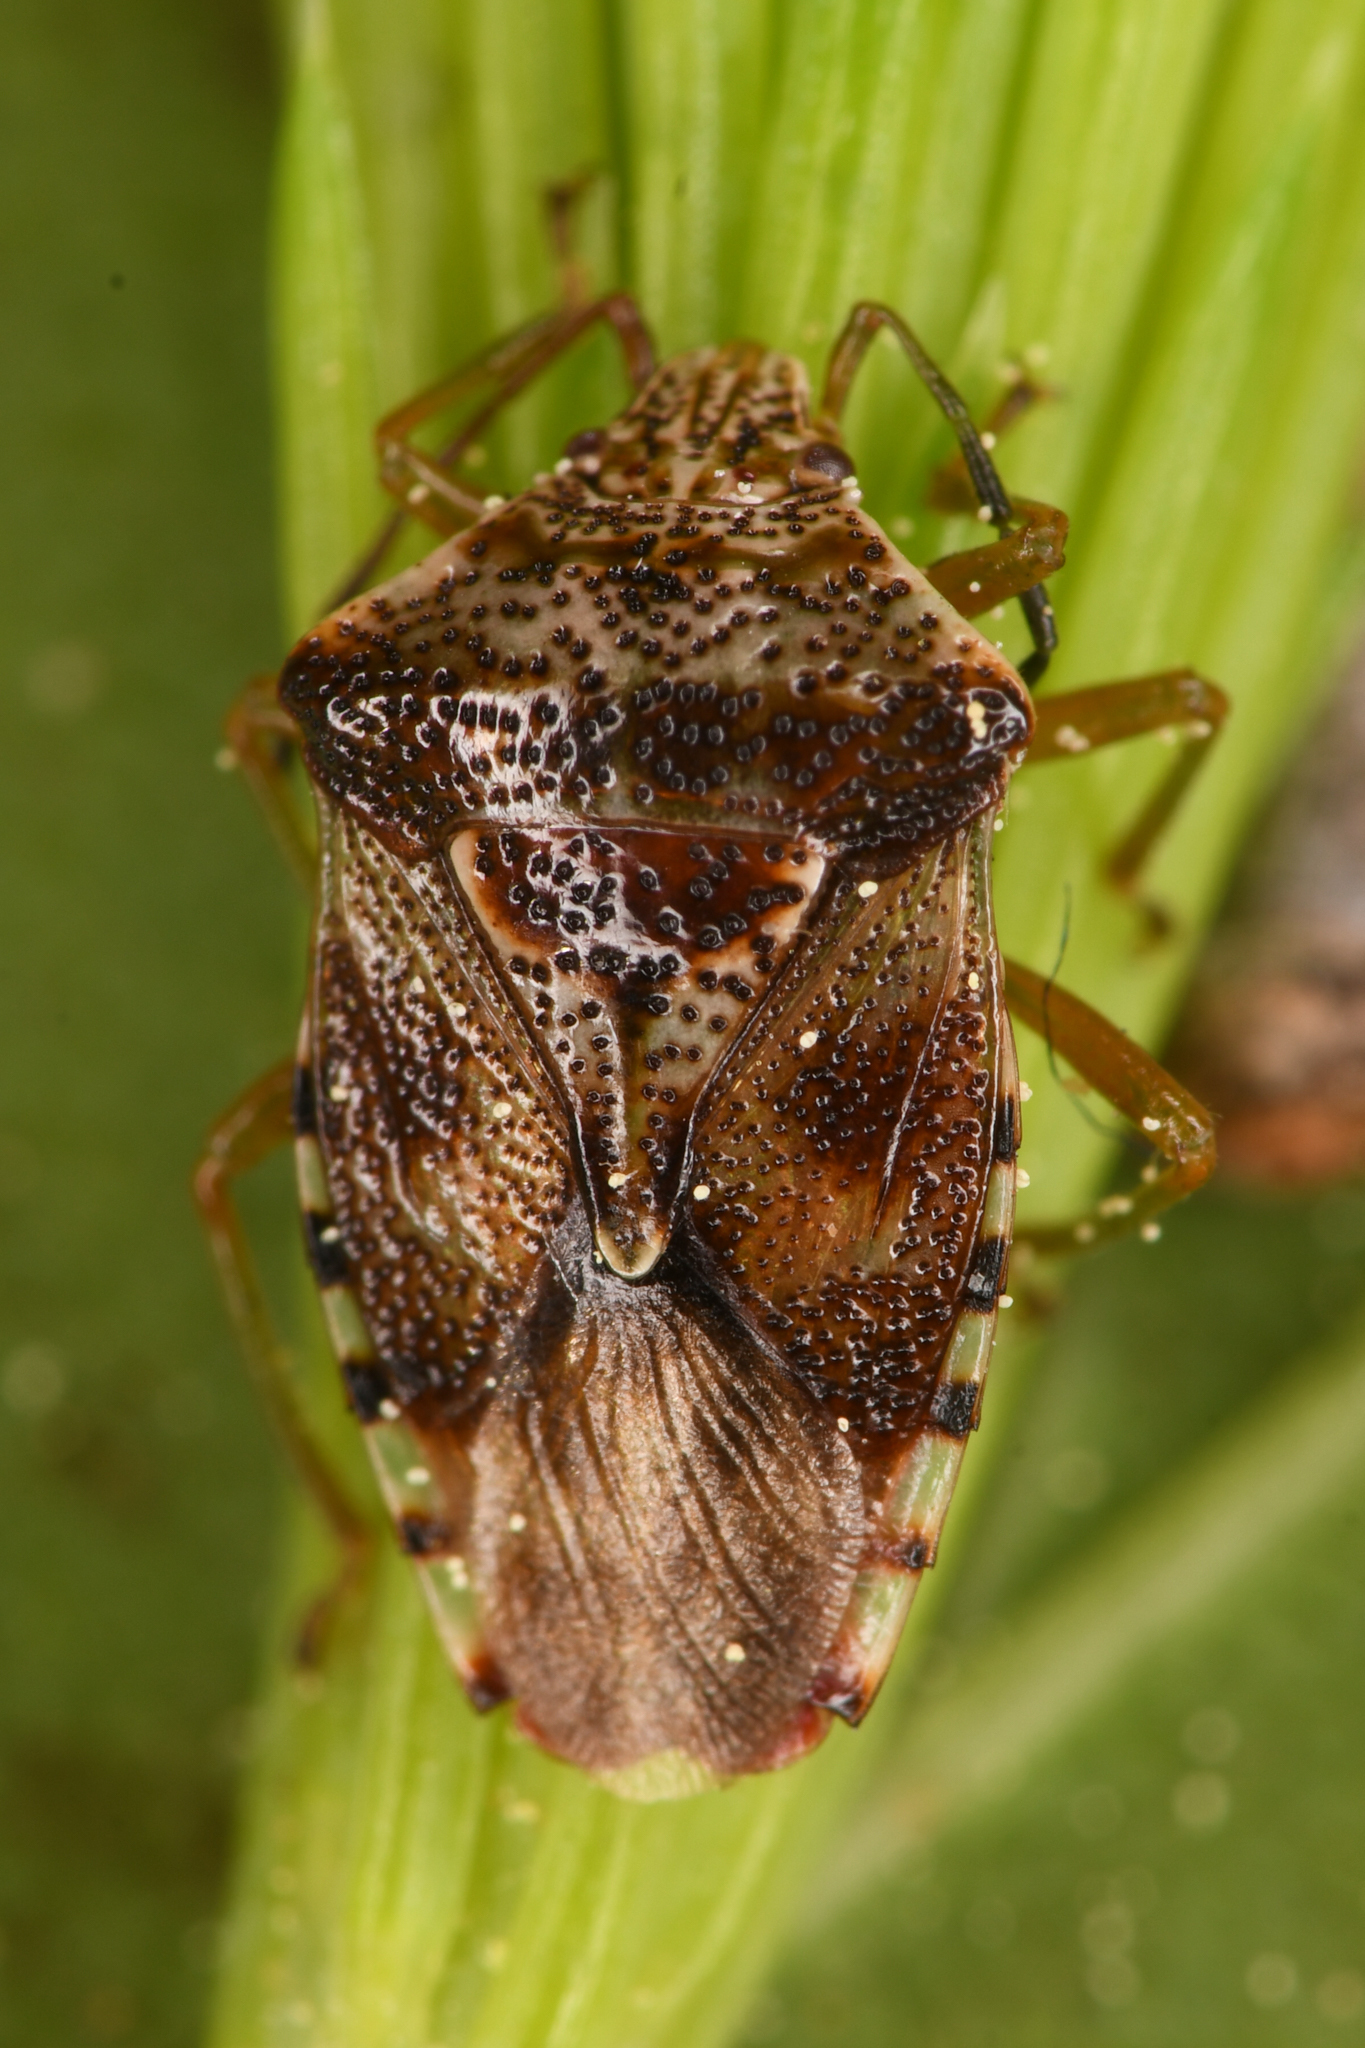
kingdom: Animalia
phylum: Arthropoda
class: Insecta
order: Hemiptera
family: Acanthosomatidae
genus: Elasmucha
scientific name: Elasmucha lateralis
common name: Shield bug
